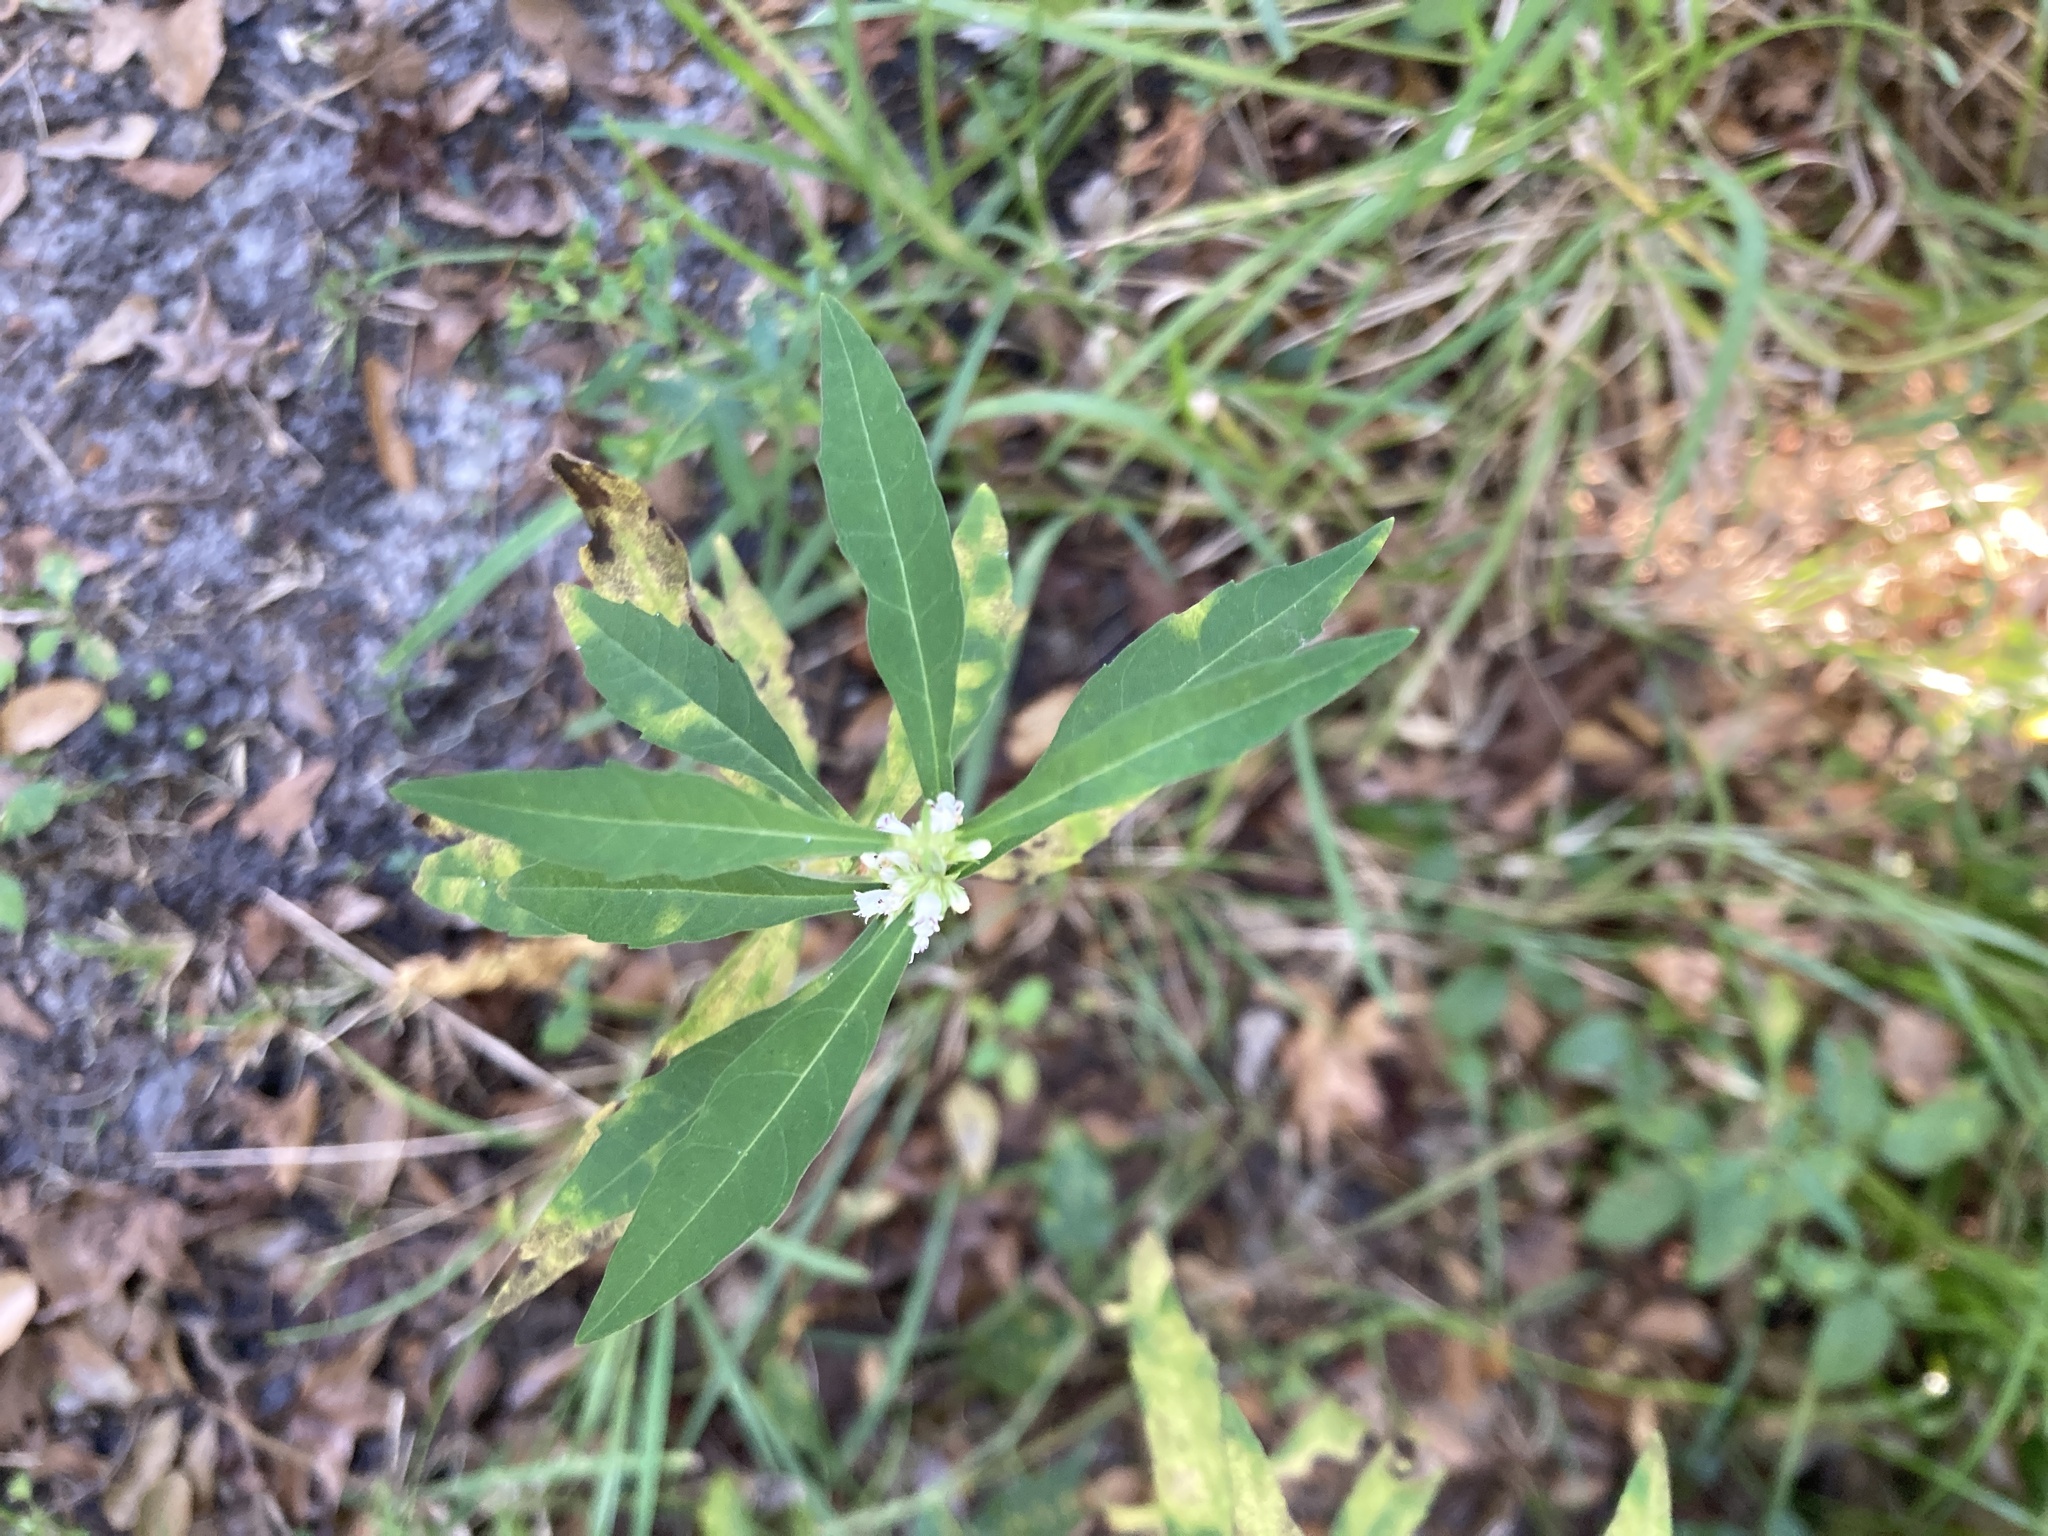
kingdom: Plantae
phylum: Tracheophyta
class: Magnoliopsida
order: Lamiales
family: Lamiaceae
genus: Lycopus
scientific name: Lycopus rubellus
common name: Stalked bugleweed
